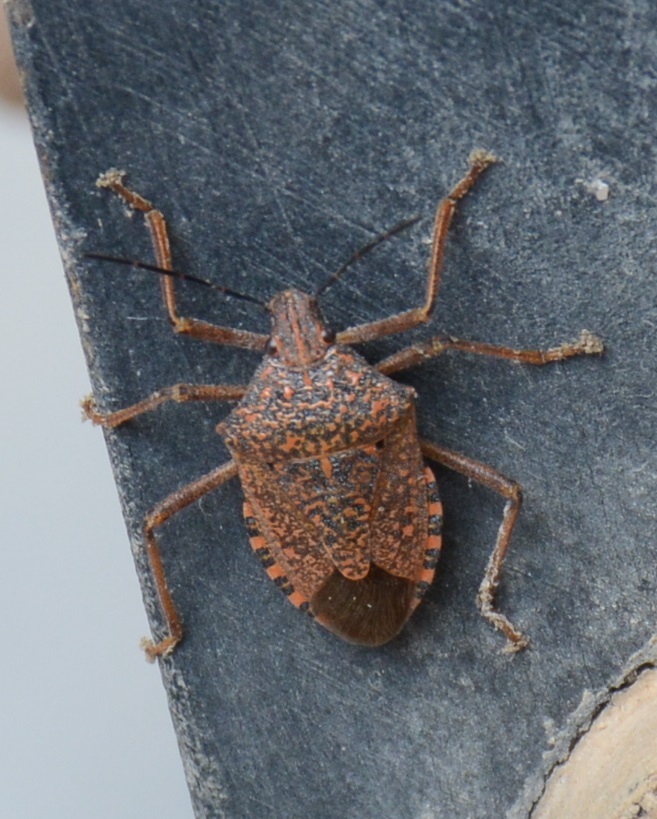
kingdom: Animalia
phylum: Arthropoda
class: Insecta
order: Hemiptera
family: Pentatomidae
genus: Apodiphus
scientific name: Apodiphus
